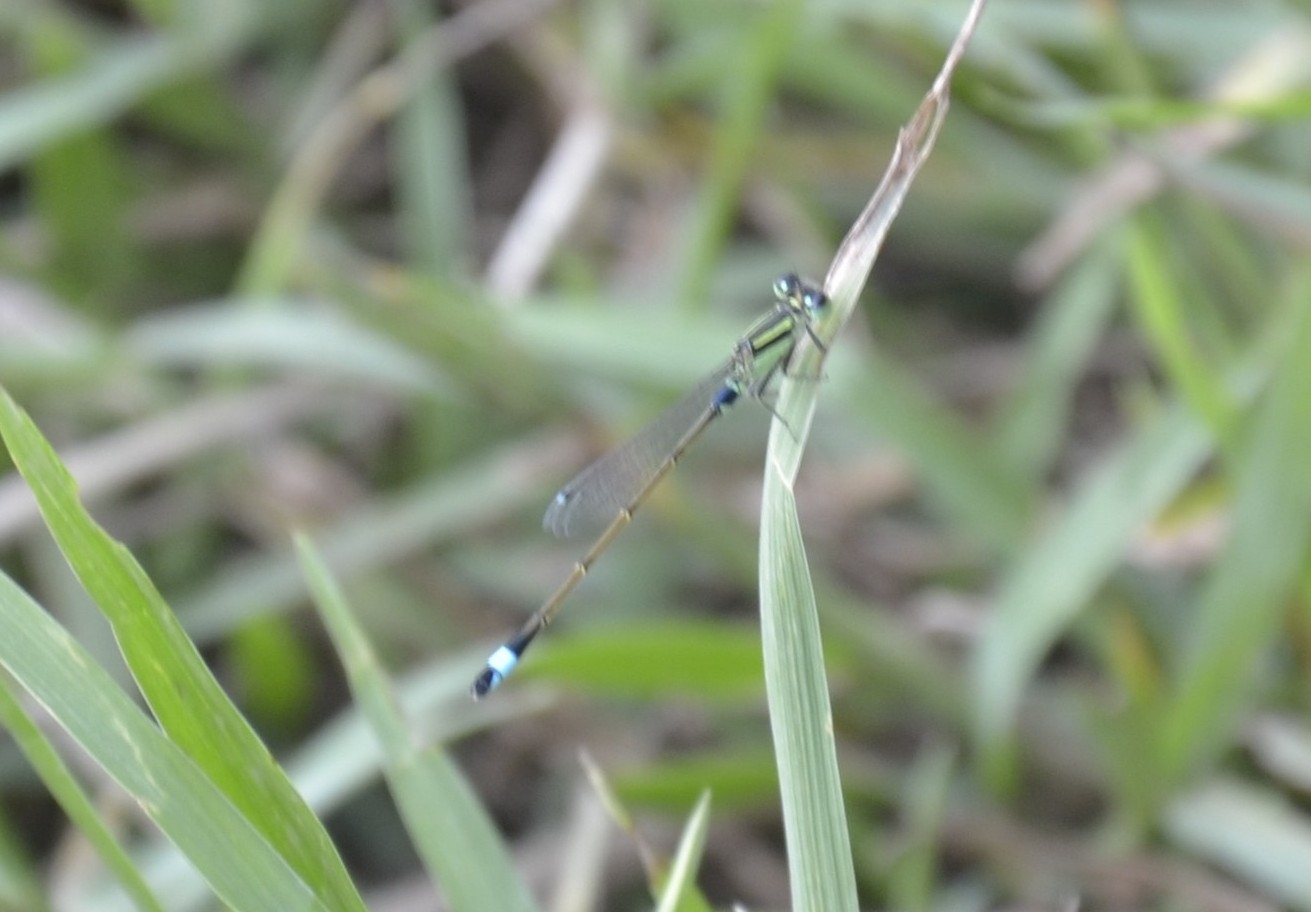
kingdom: Animalia
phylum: Arthropoda
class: Insecta
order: Odonata
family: Coenagrionidae
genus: Ischnura
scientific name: Ischnura senegalensis
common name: Tropical bluetail
